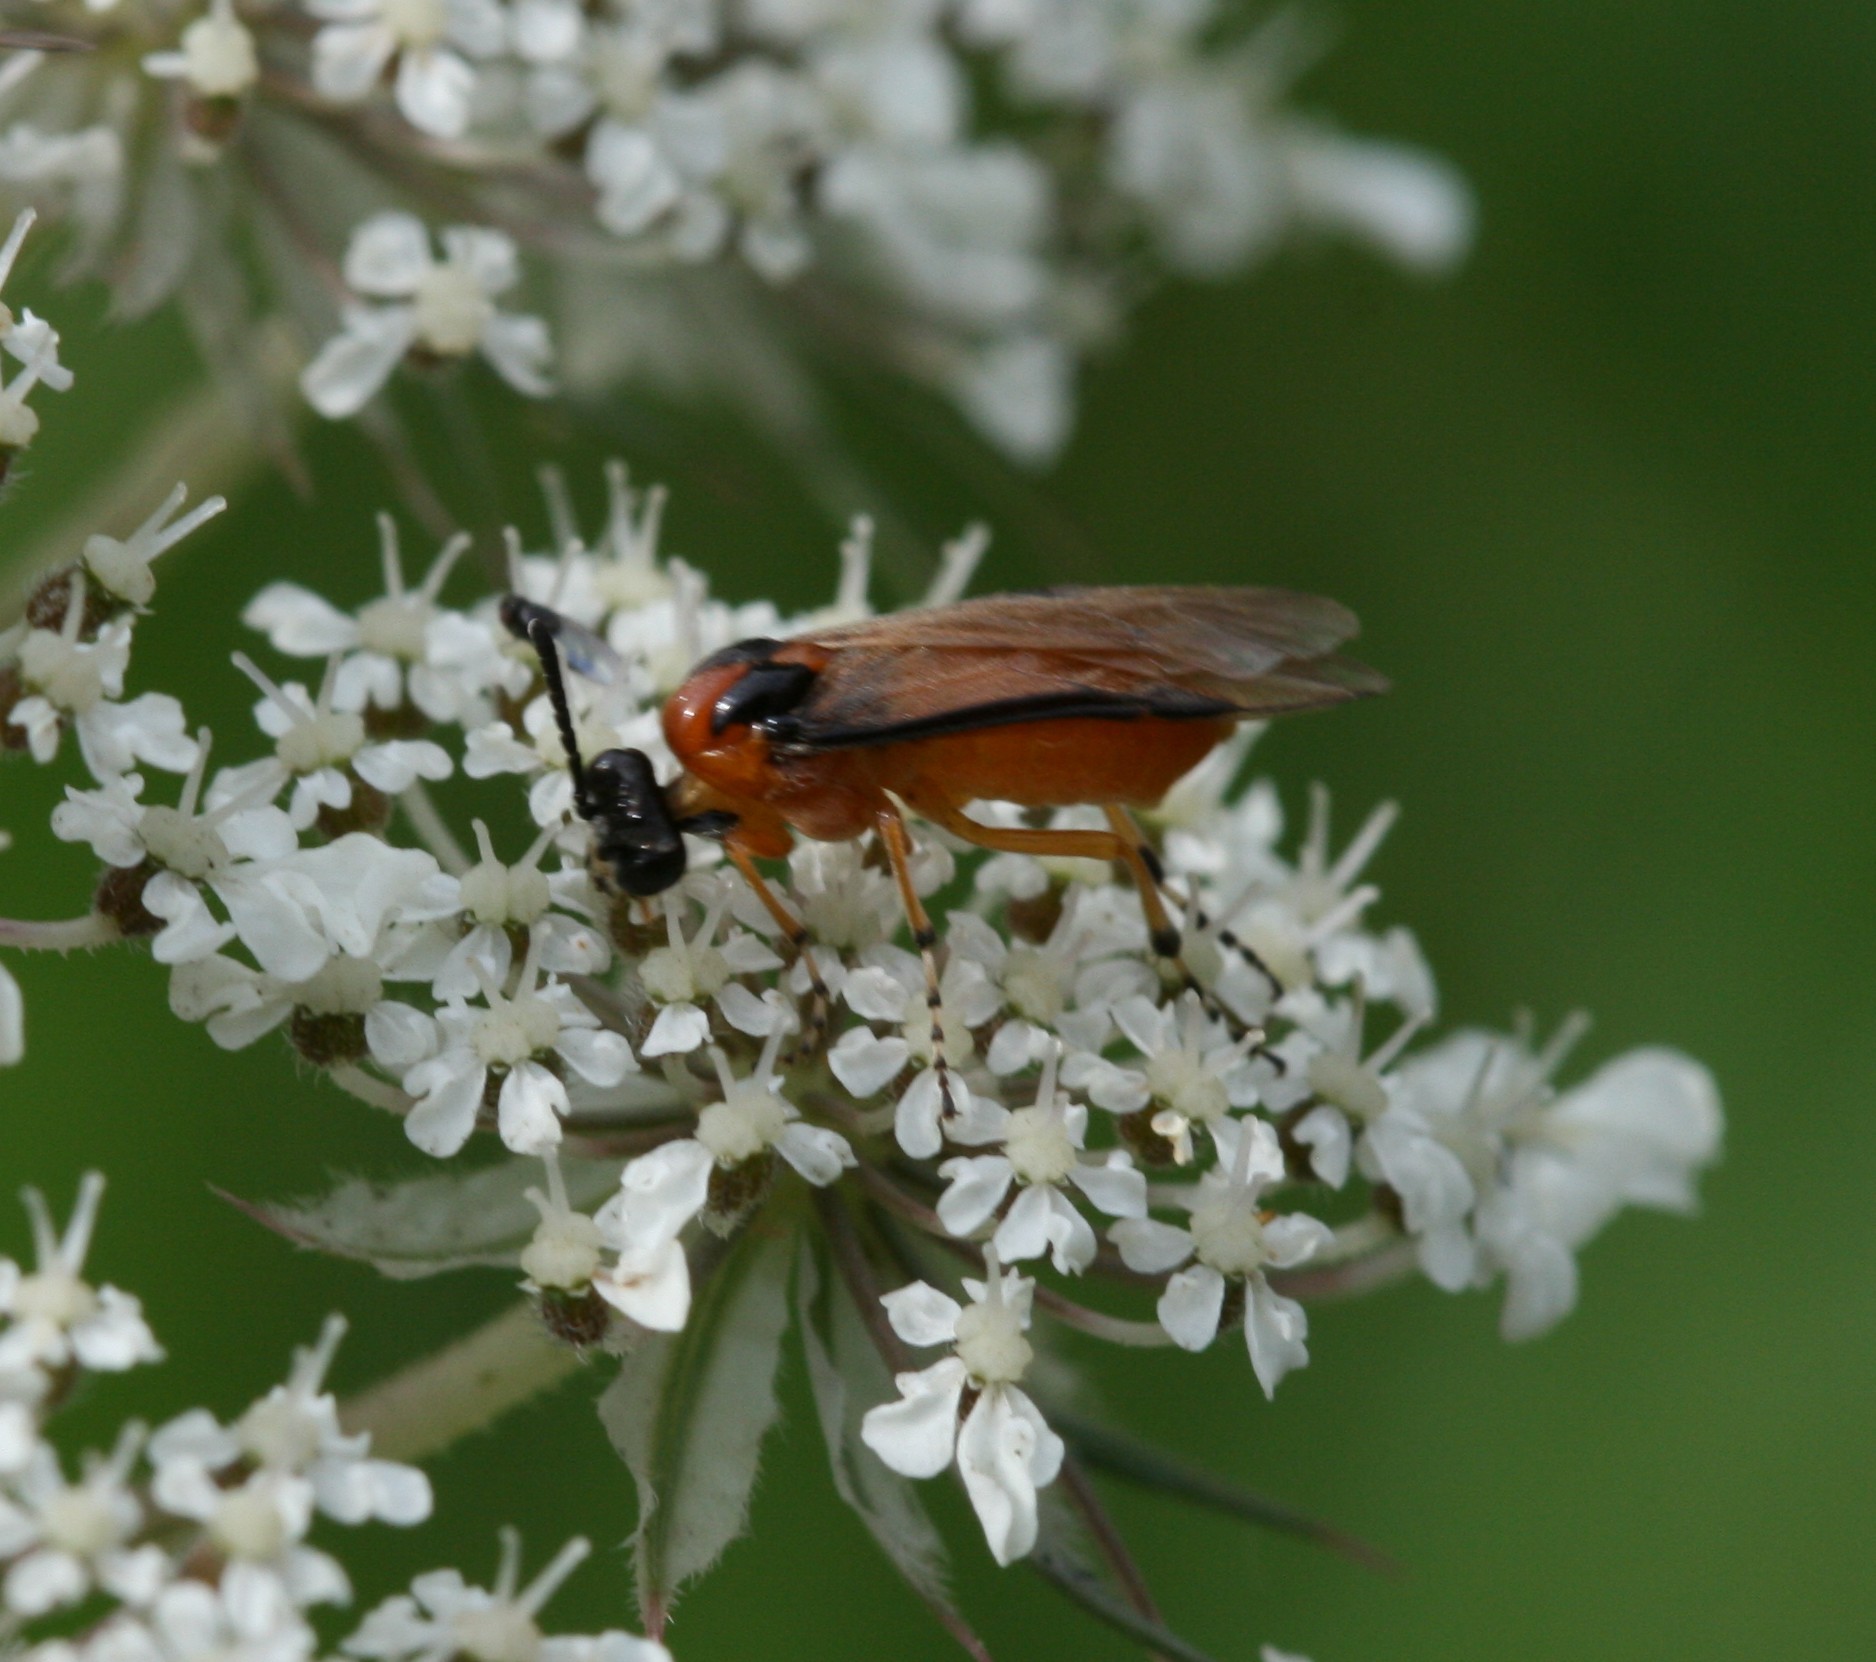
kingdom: Animalia
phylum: Arthropoda
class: Insecta
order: Hymenoptera
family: Tenthredinidae
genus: Athalia
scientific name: Athalia rosae
